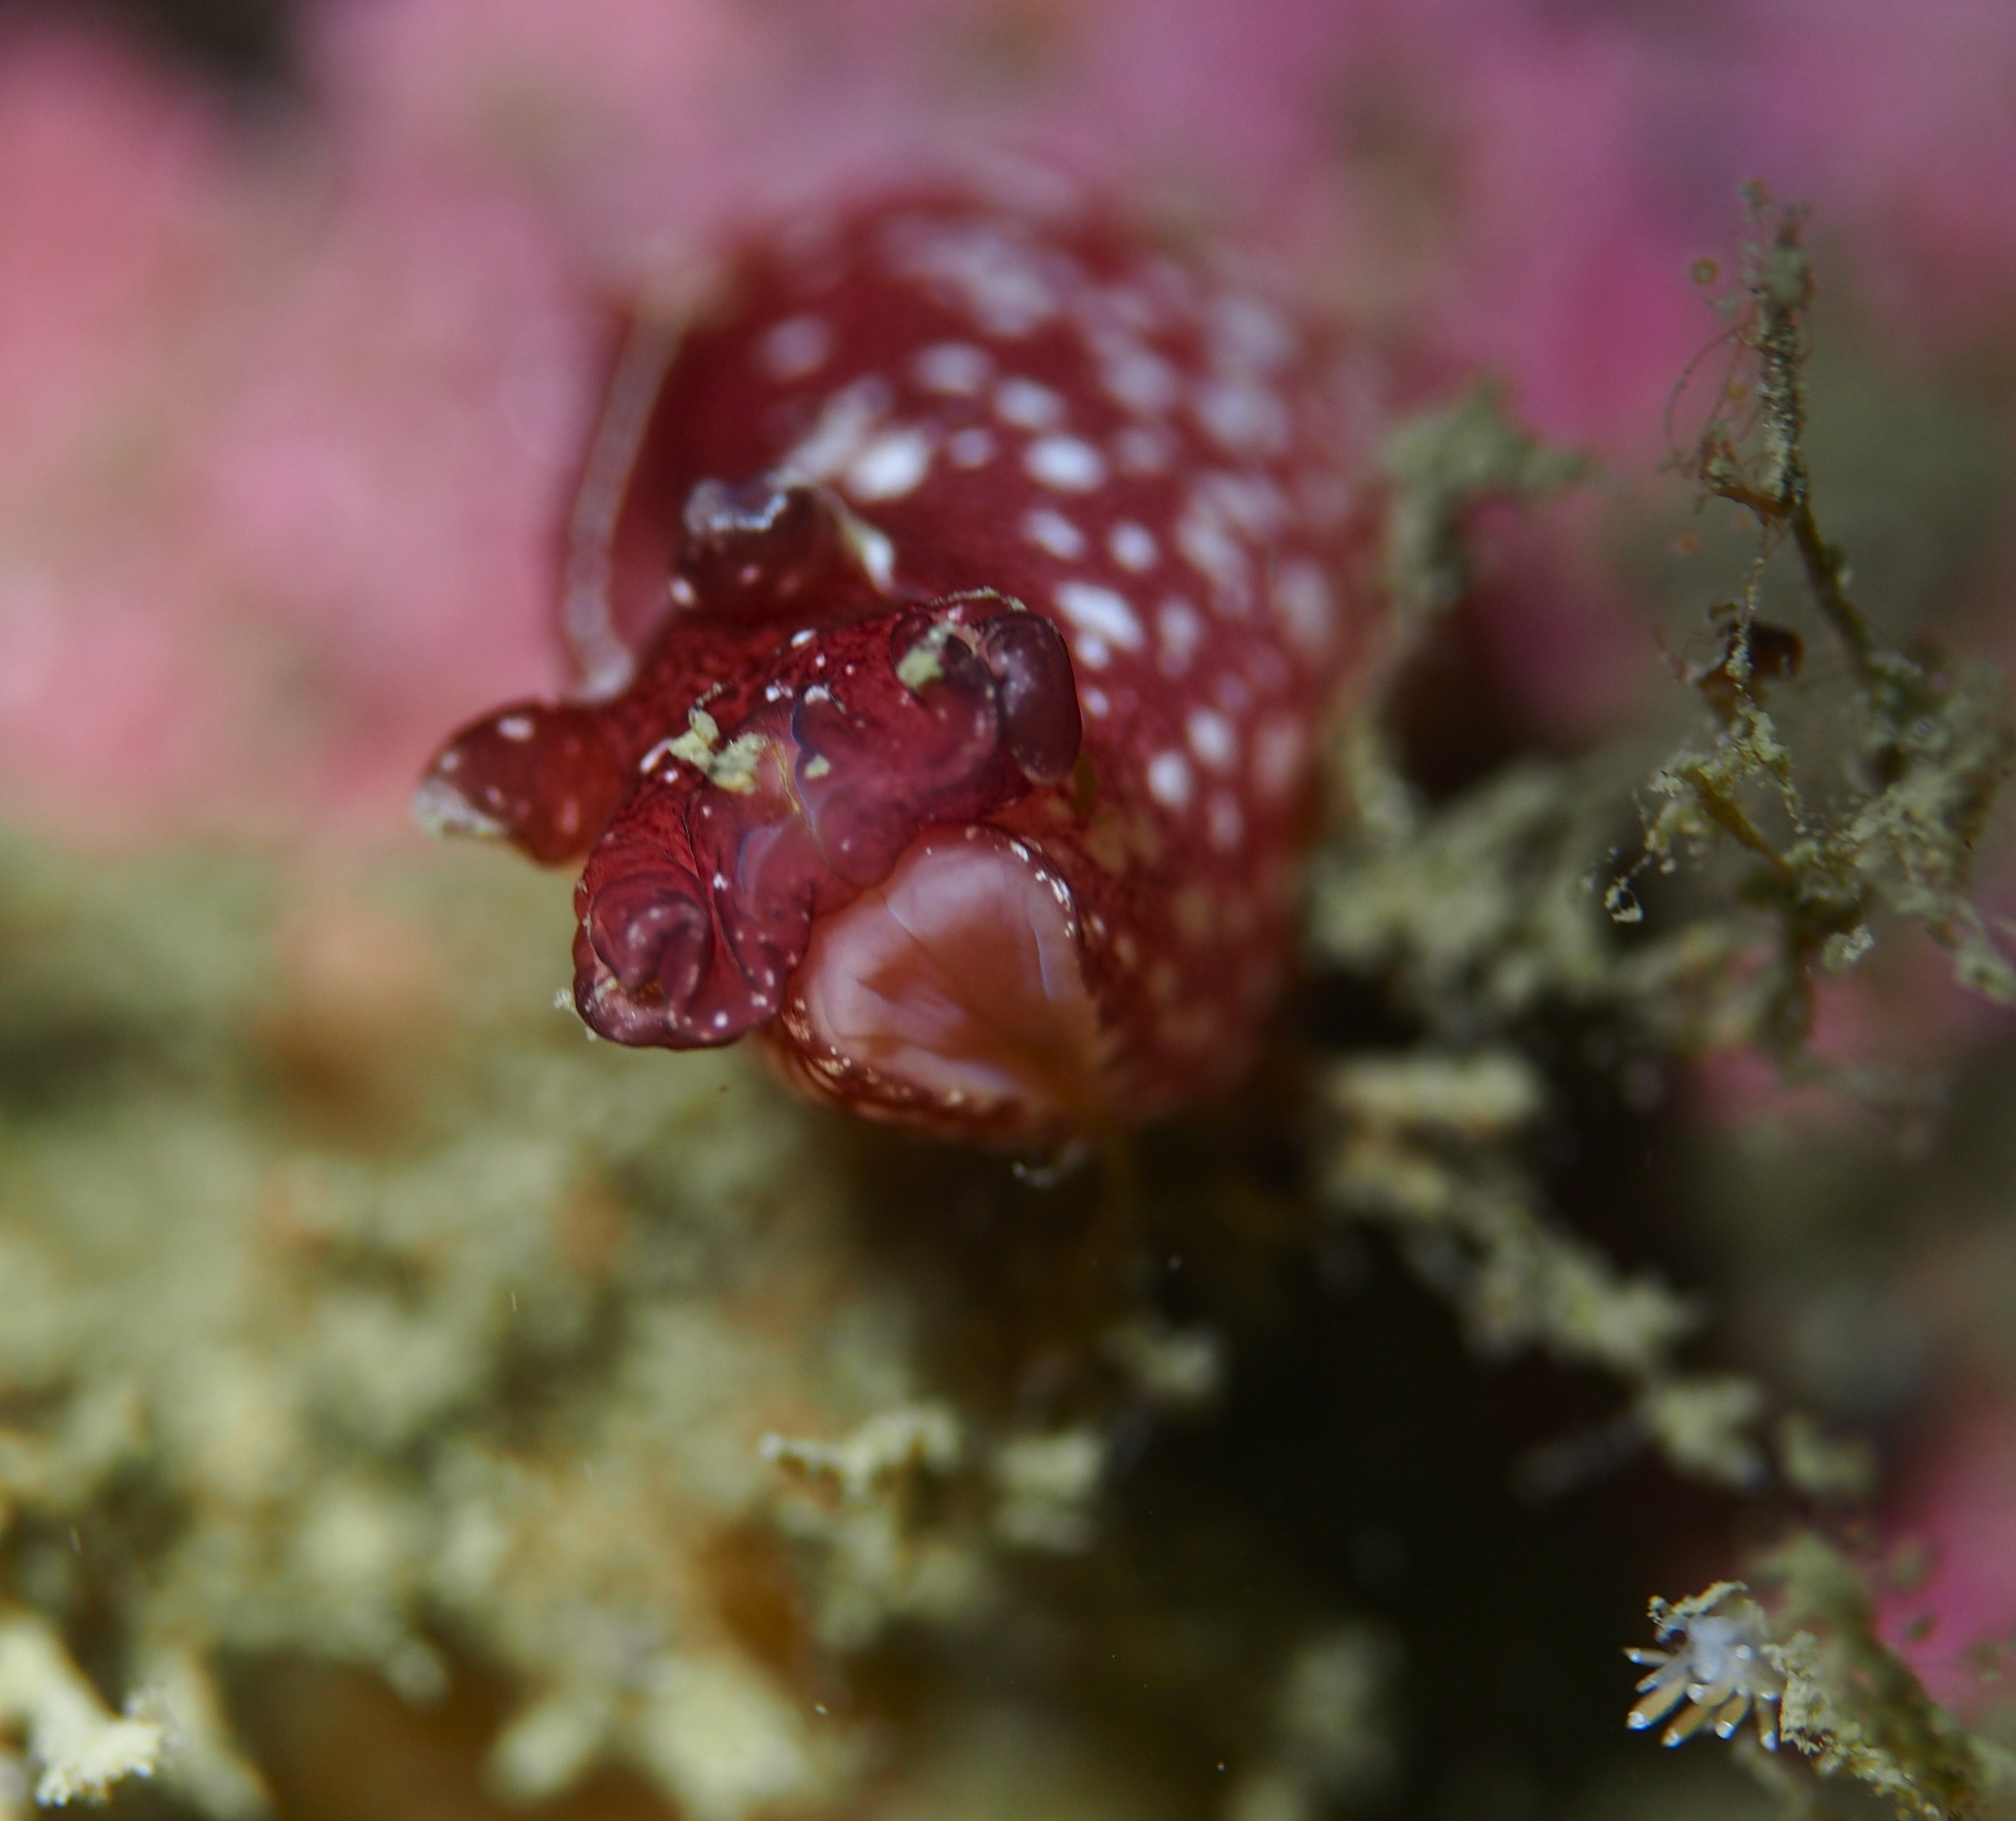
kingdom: Animalia
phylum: Mollusca
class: Gastropoda
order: Aplysiida
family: Aplysiidae
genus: Aplysia
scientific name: Aplysia punctata
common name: Common sea hare
